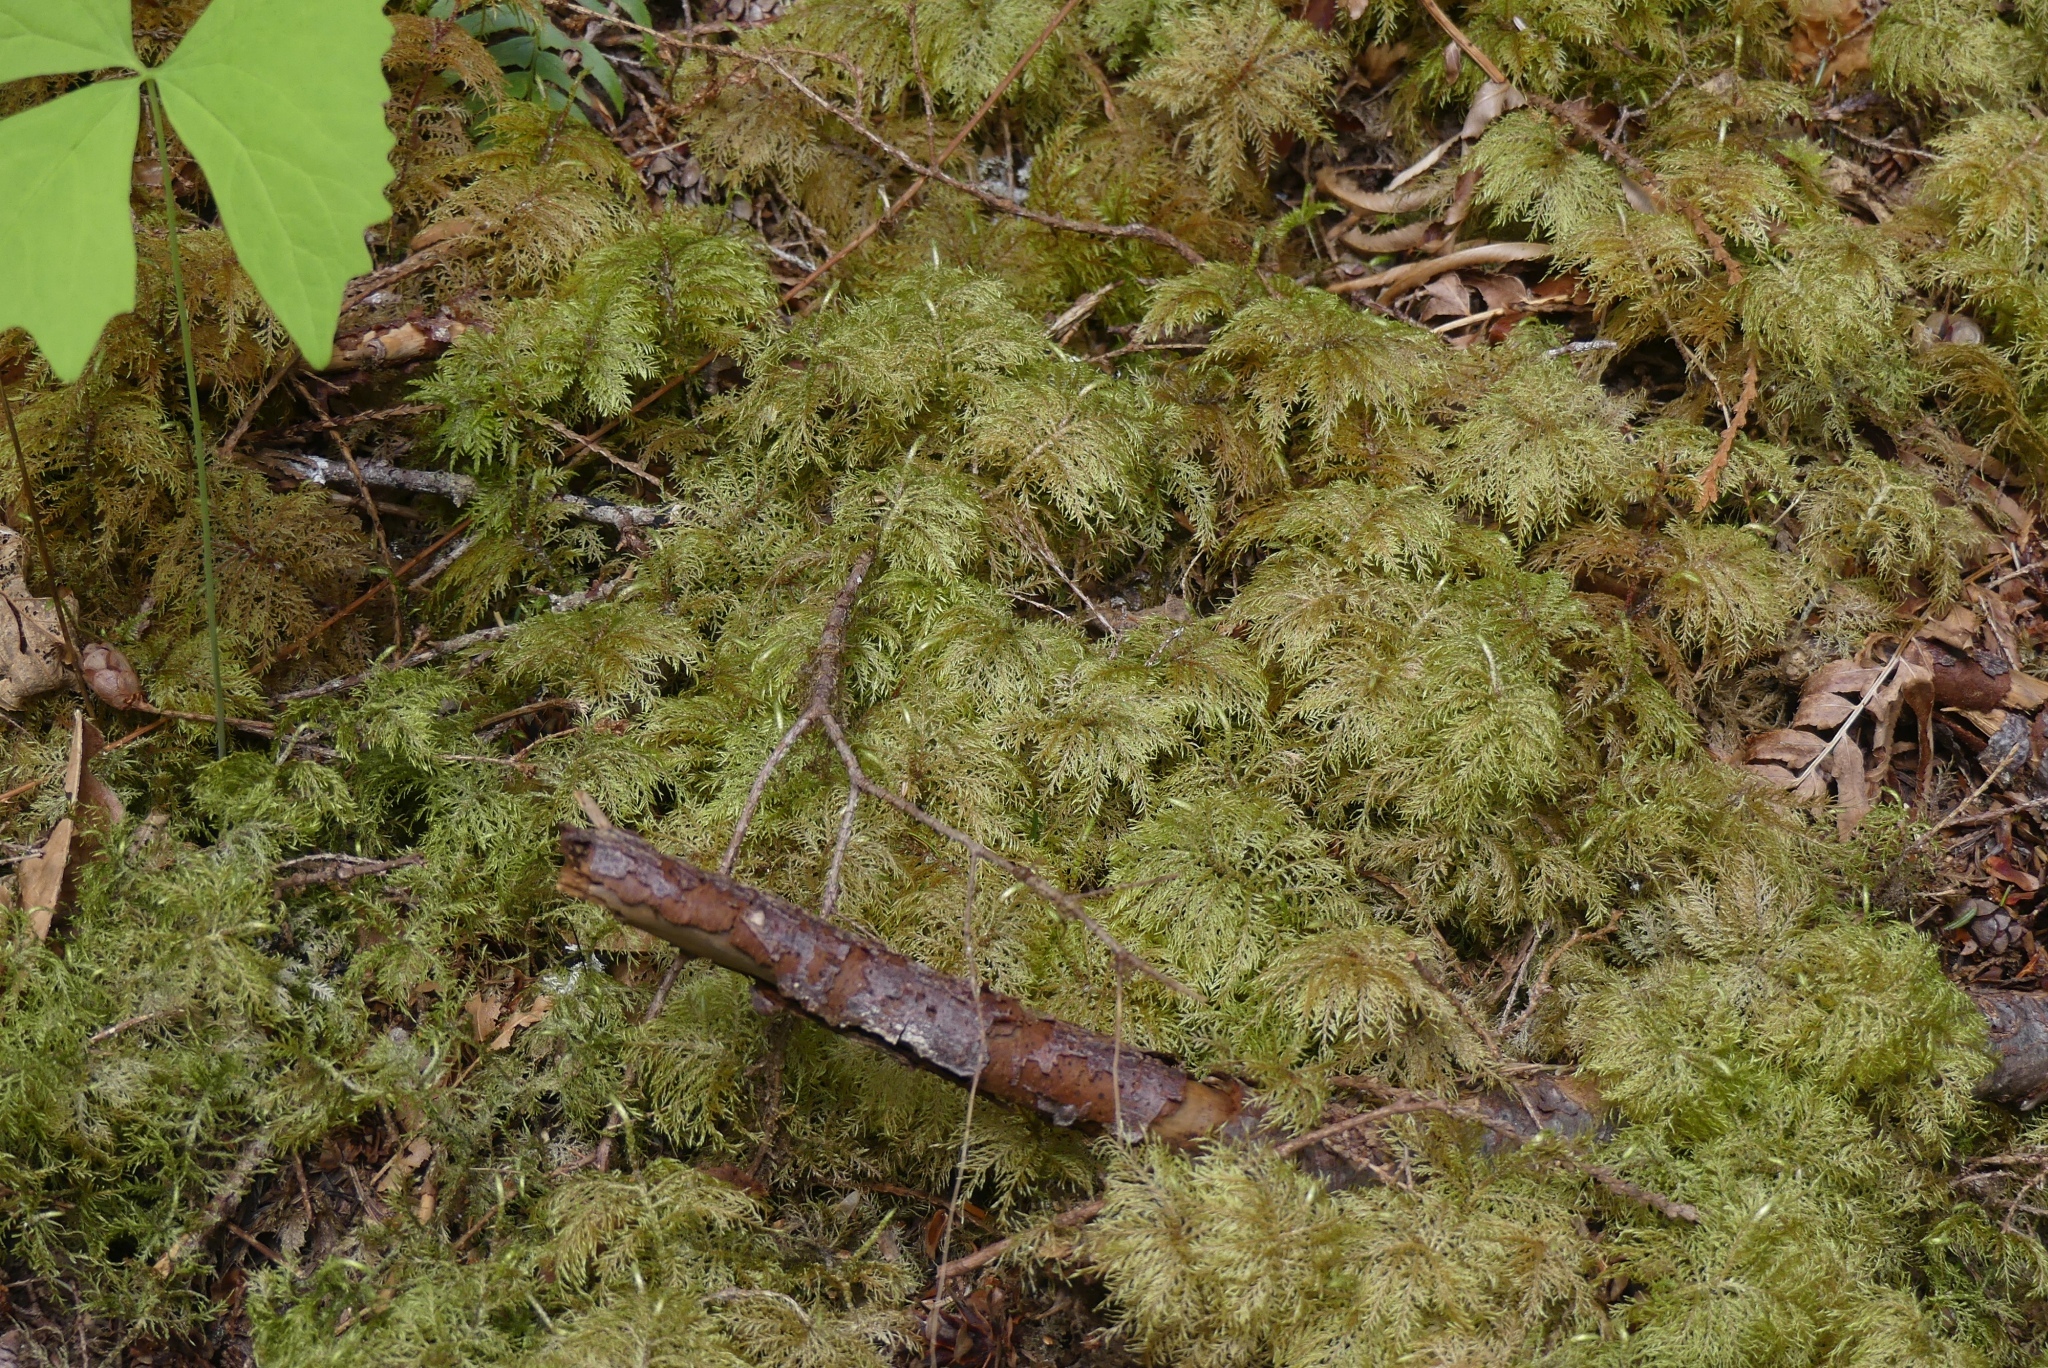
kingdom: Plantae
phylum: Bryophyta
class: Bryopsida
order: Hypnales
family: Hylocomiaceae
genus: Hylocomium
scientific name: Hylocomium splendens
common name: Stairstep moss
